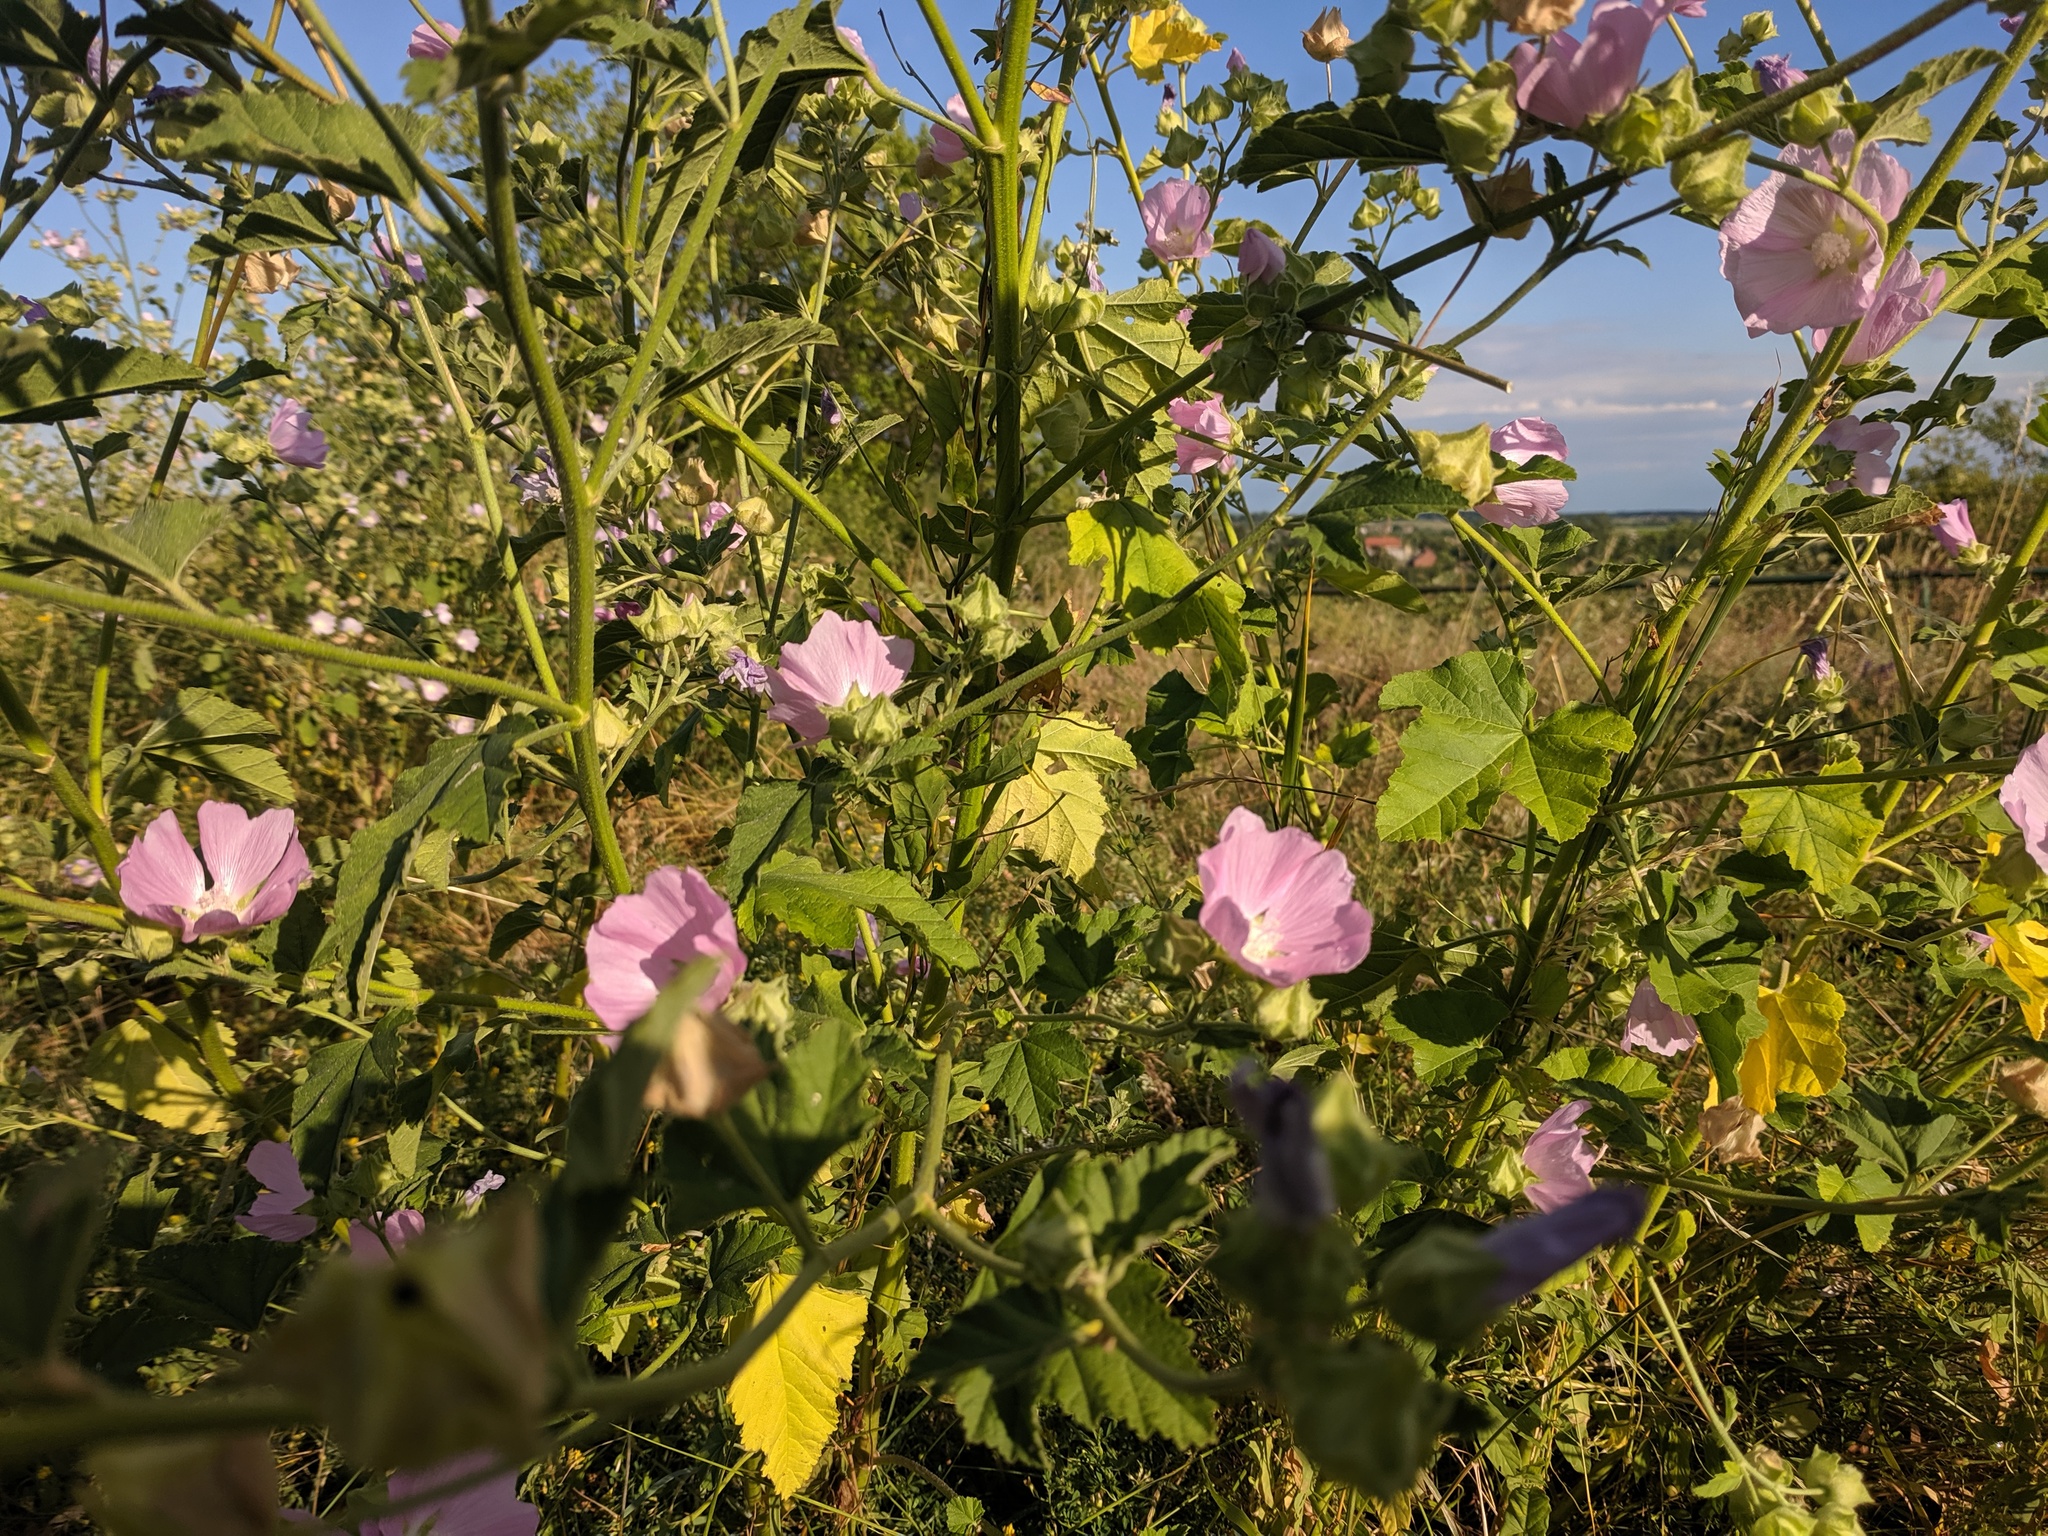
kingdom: Plantae
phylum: Tracheophyta
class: Magnoliopsida
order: Malvales
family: Malvaceae
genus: Malva
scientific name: Malva thuringiaca
